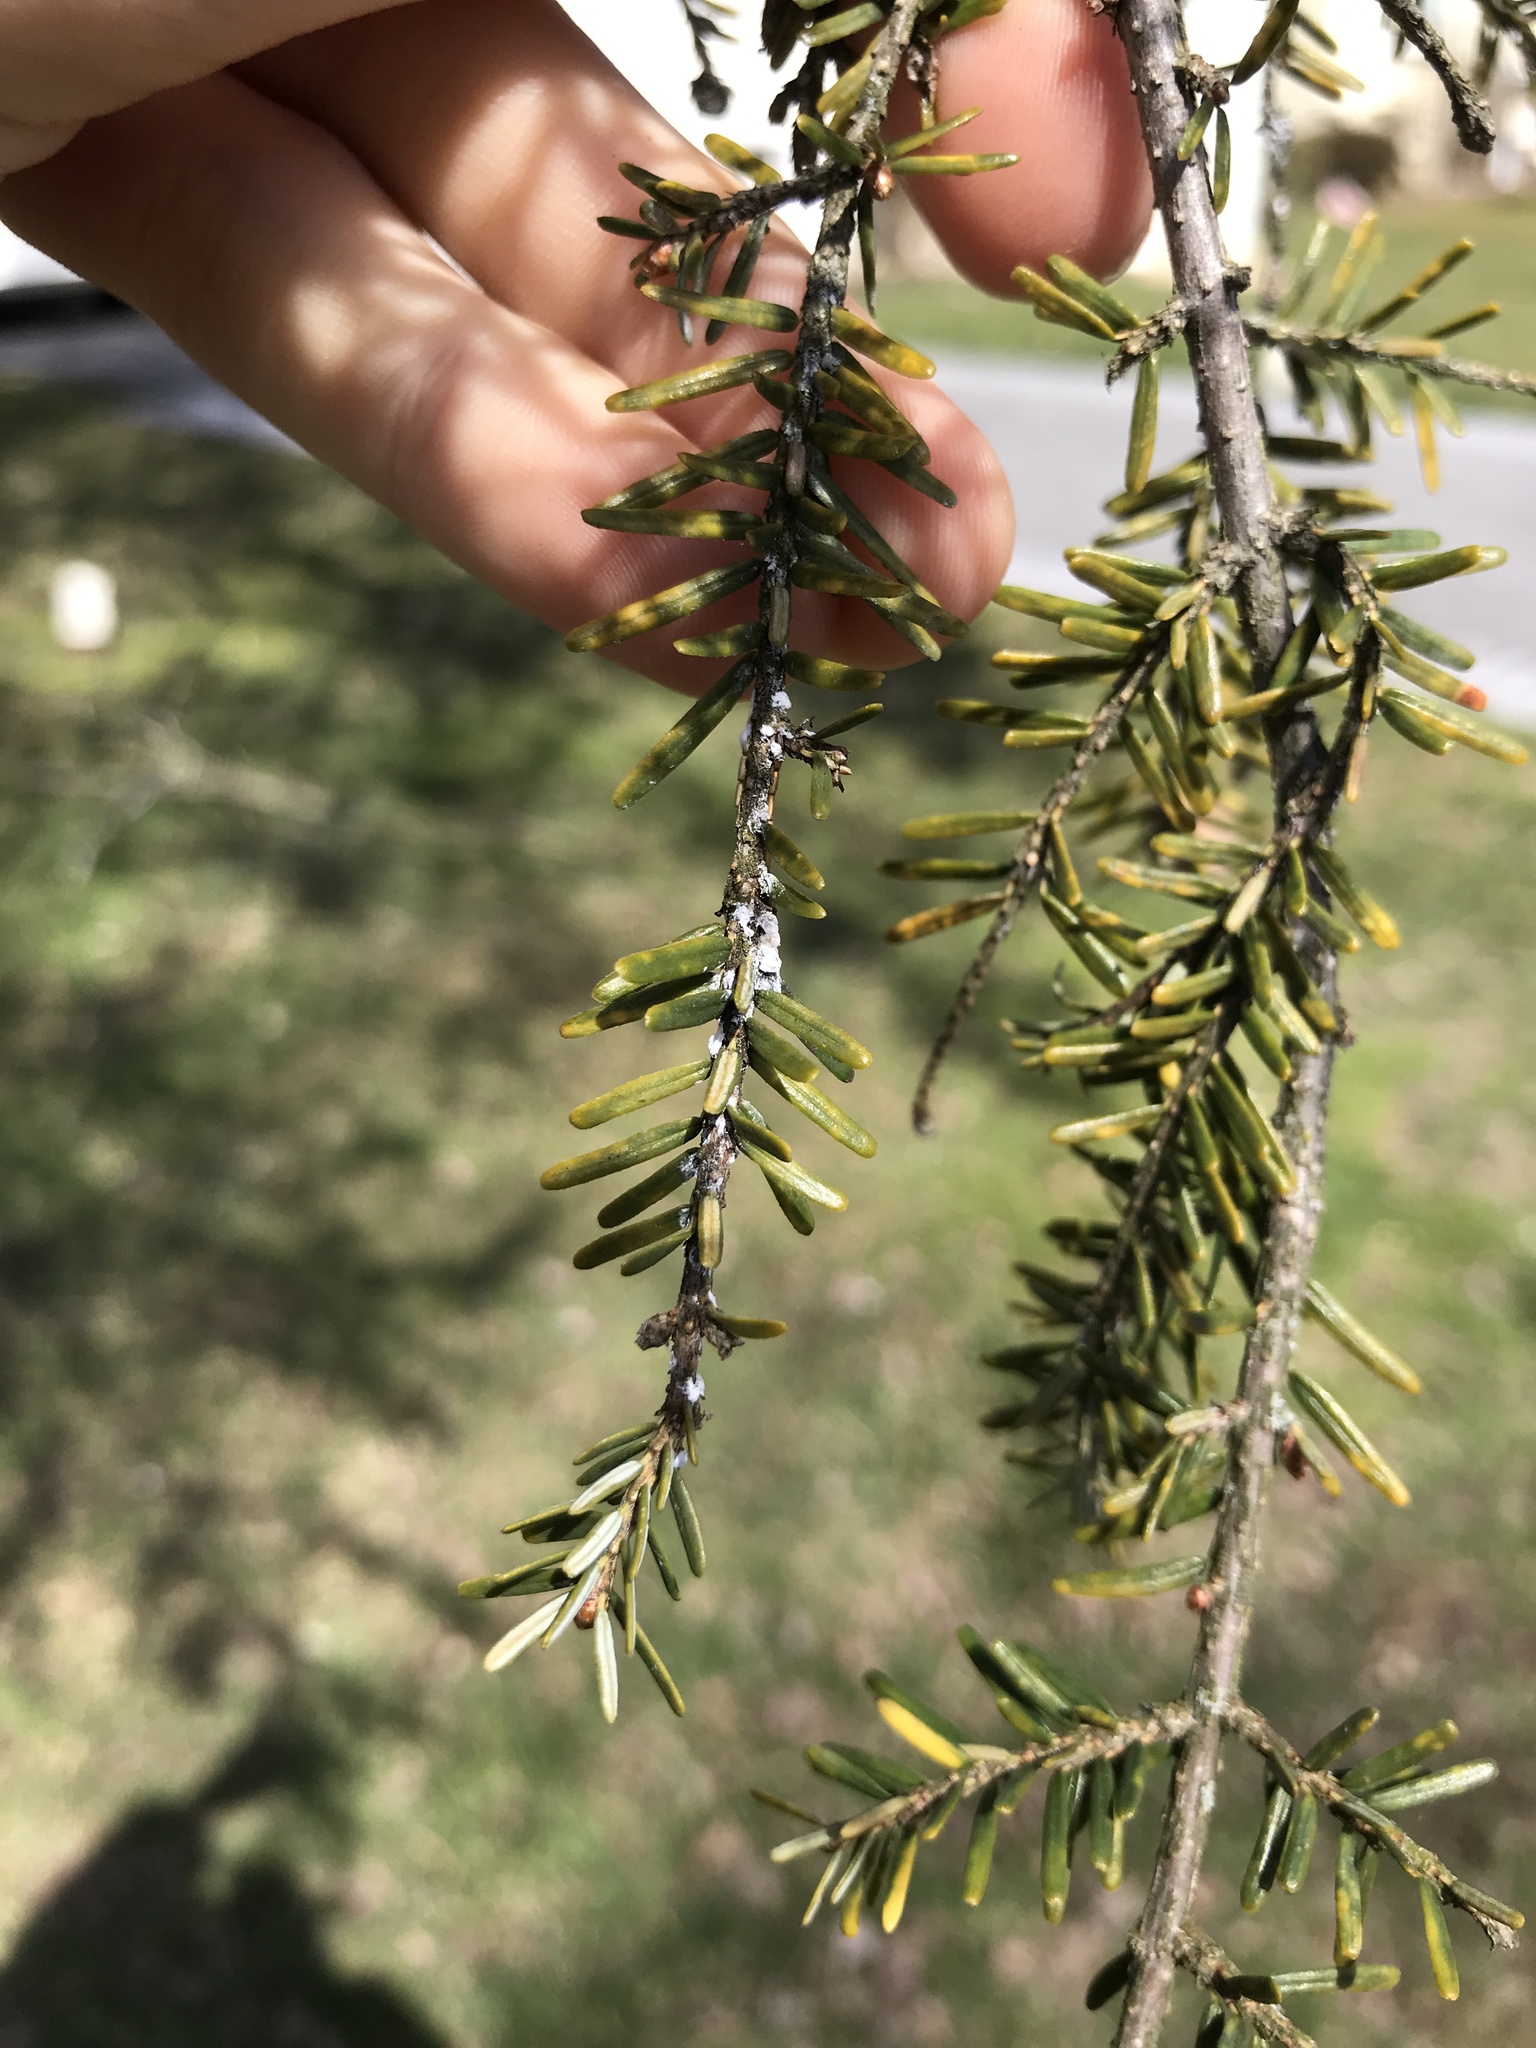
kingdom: Animalia
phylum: Arthropoda
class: Insecta
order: Hemiptera
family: Adelgidae
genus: Adelges
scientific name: Adelges tsugae
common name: Hemlock woolly adelgid
